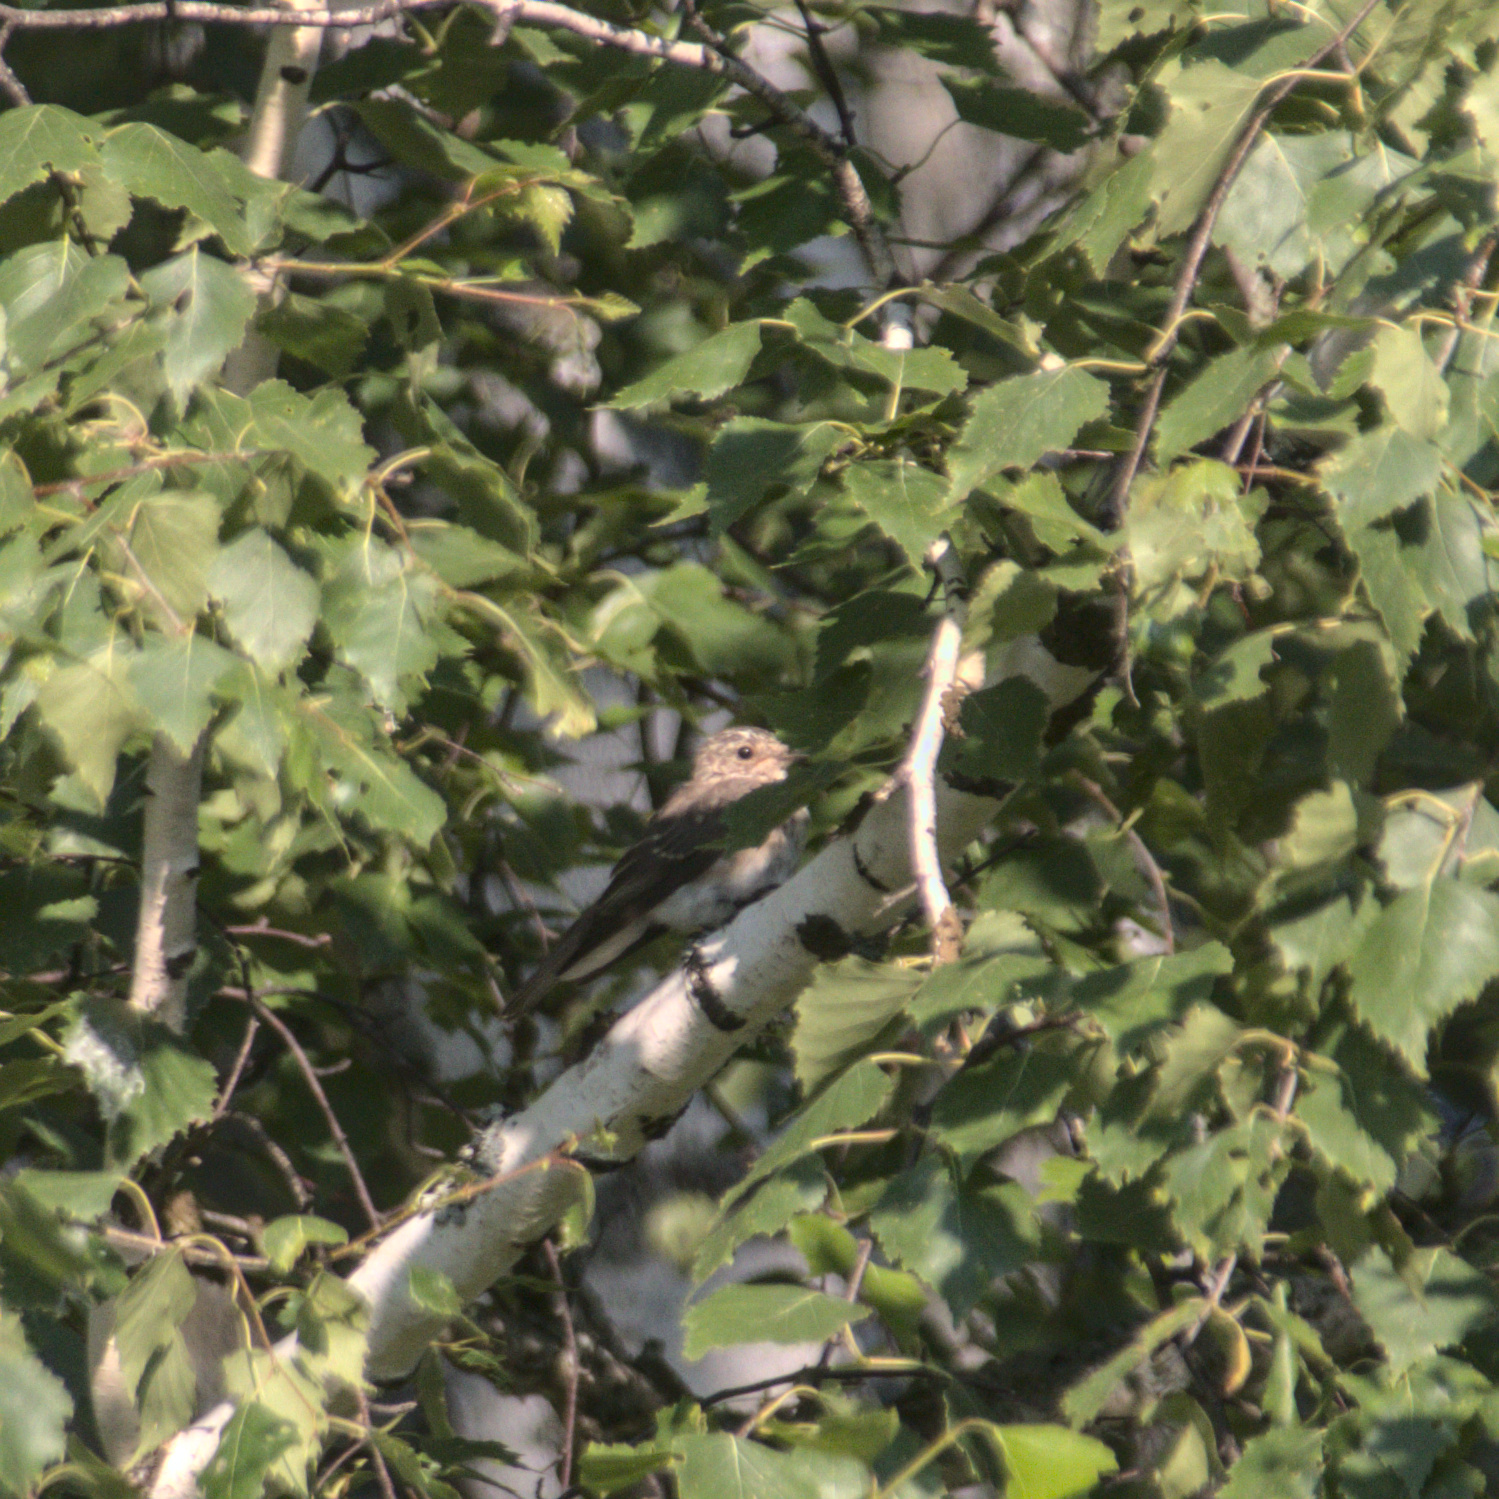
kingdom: Animalia
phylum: Chordata
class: Aves
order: Passeriformes
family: Muscicapidae
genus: Muscicapa
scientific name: Muscicapa striata
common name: Spotted flycatcher
